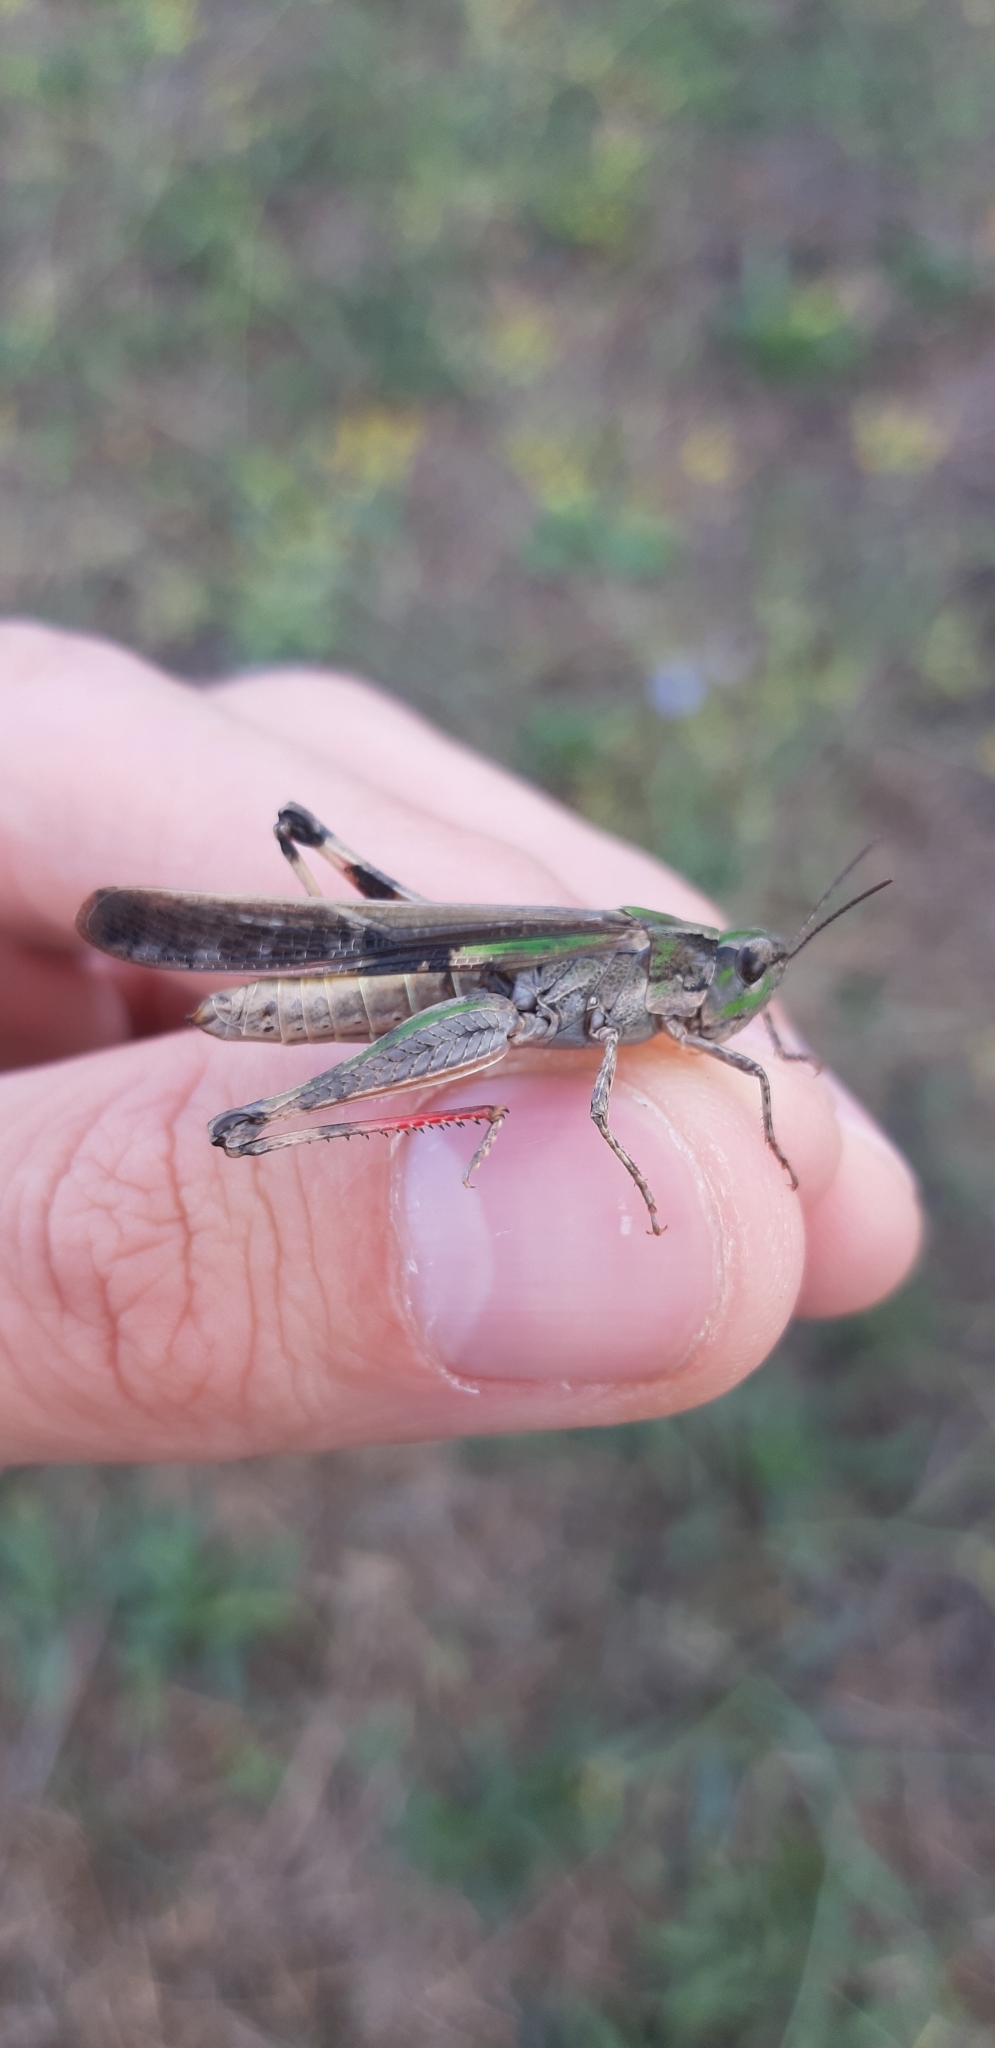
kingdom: Animalia
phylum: Arthropoda
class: Insecta
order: Orthoptera
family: Acrididae
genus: Aiolopus
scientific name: Aiolopus puissanti
